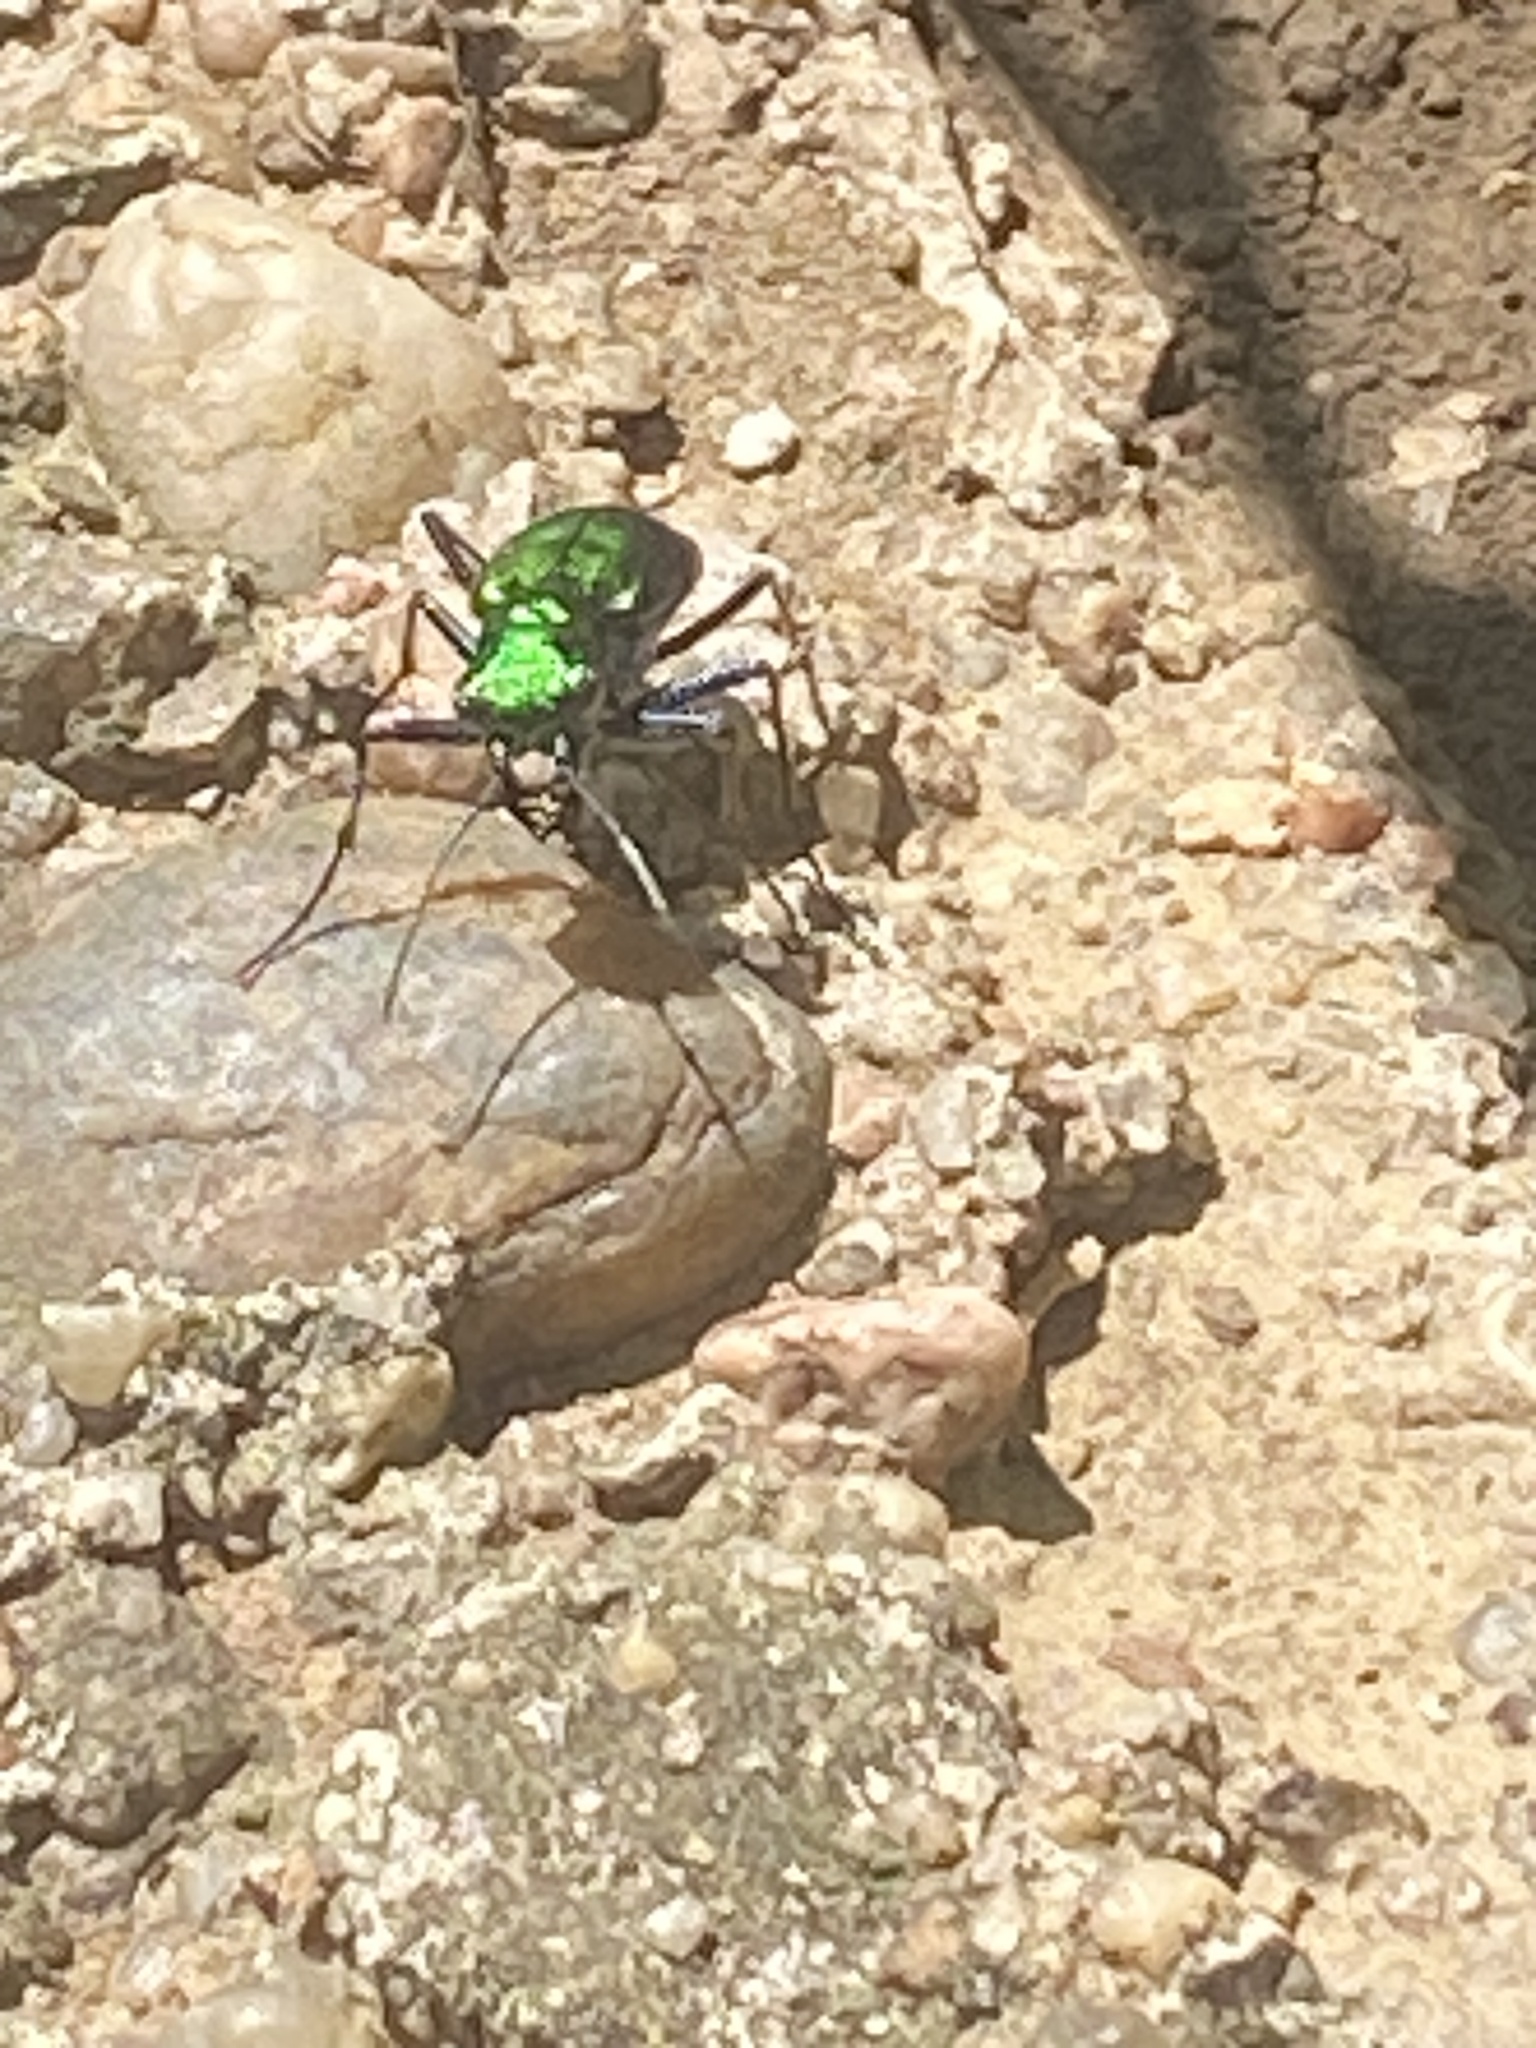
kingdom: Animalia
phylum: Arthropoda
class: Insecta
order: Coleoptera
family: Carabidae
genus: Cicindela
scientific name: Cicindela sexguttata
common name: Six-spotted tiger beetle
